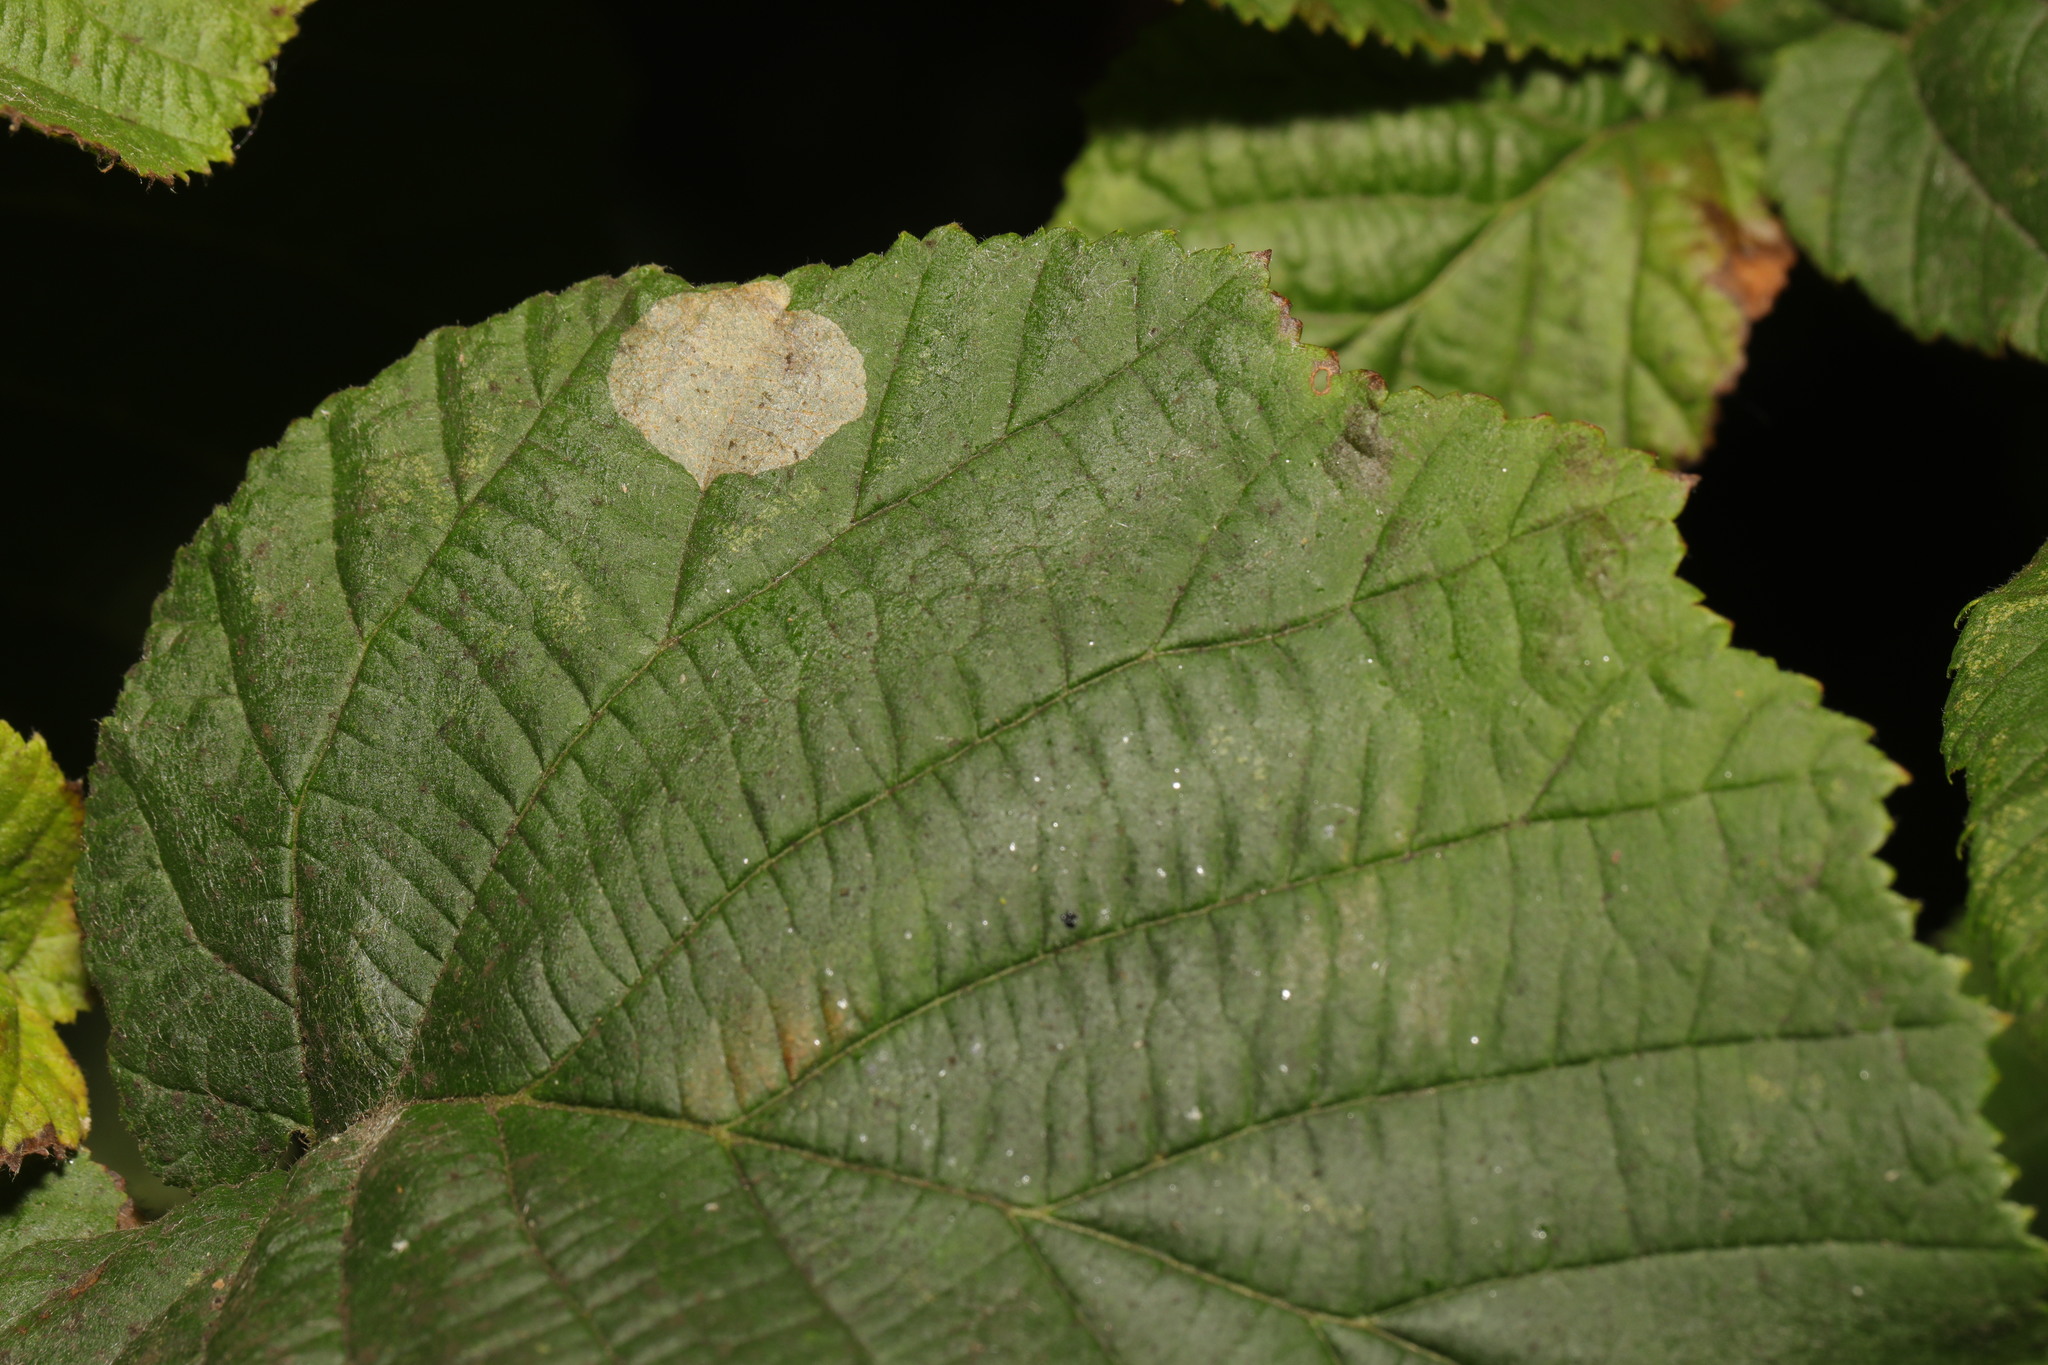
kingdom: Animalia
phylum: Arthropoda
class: Insecta
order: Lepidoptera
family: Gracillariidae
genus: Phyllonorycter
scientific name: Phyllonorycter coryli
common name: Nut-leaf blister moth
